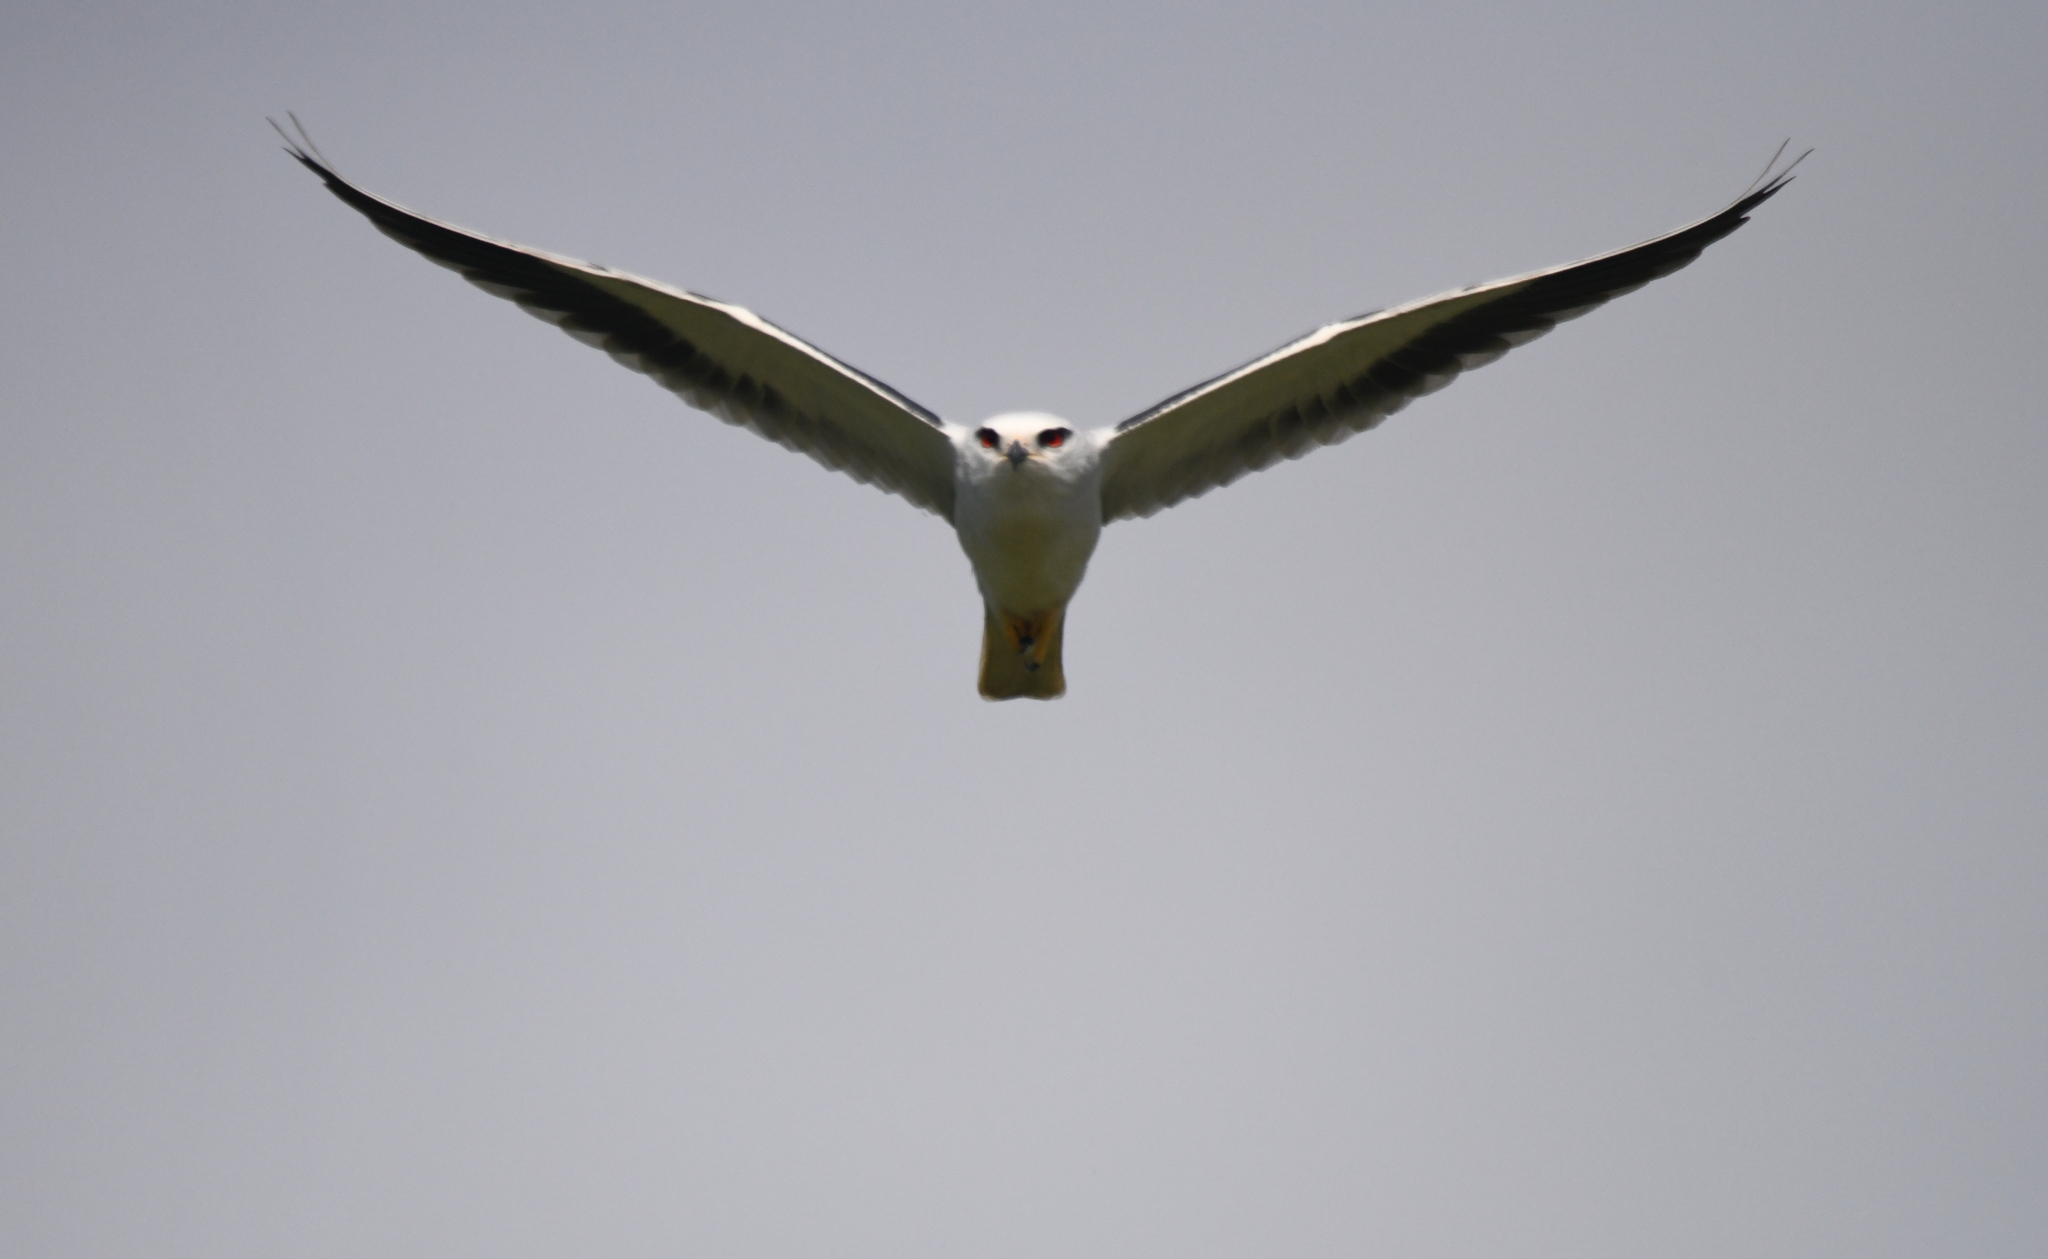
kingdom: Animalia
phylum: Chordata
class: Aves
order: Accipitriformes
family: Accipitridae
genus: Elanus
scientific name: Elanus caeruleus
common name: Black-winged kite
